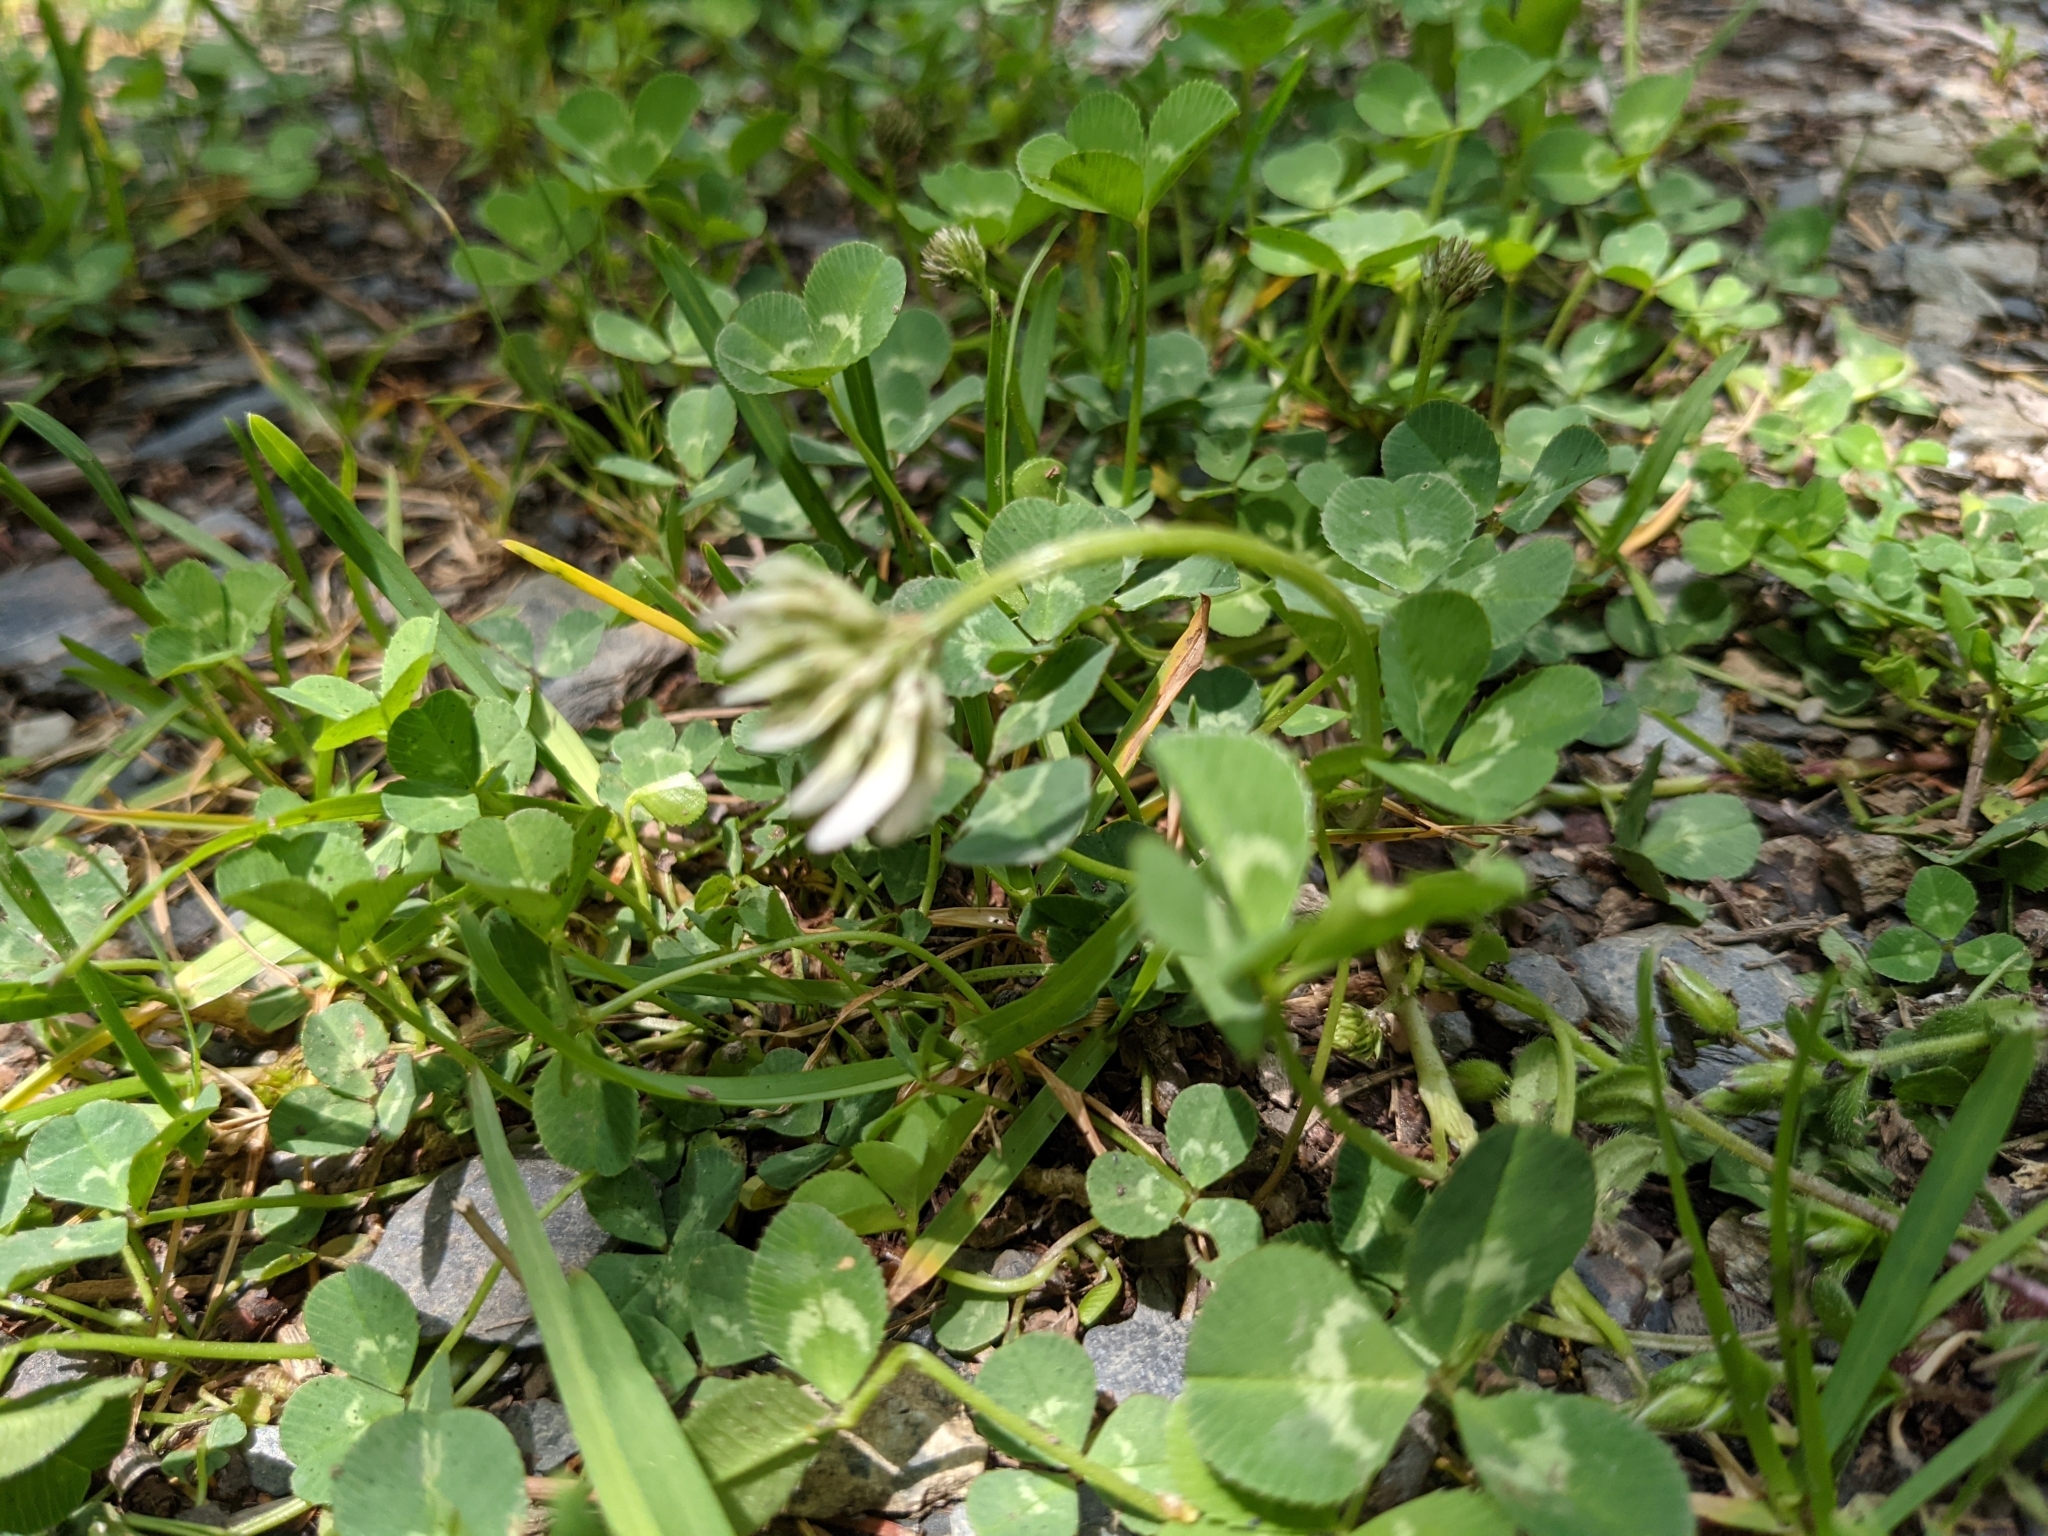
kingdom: Plantae
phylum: Tracheophyta
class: Magnoliopsida
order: Fabales
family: Fabaceae
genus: Trifolium
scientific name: Trifolium repens
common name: White clover
